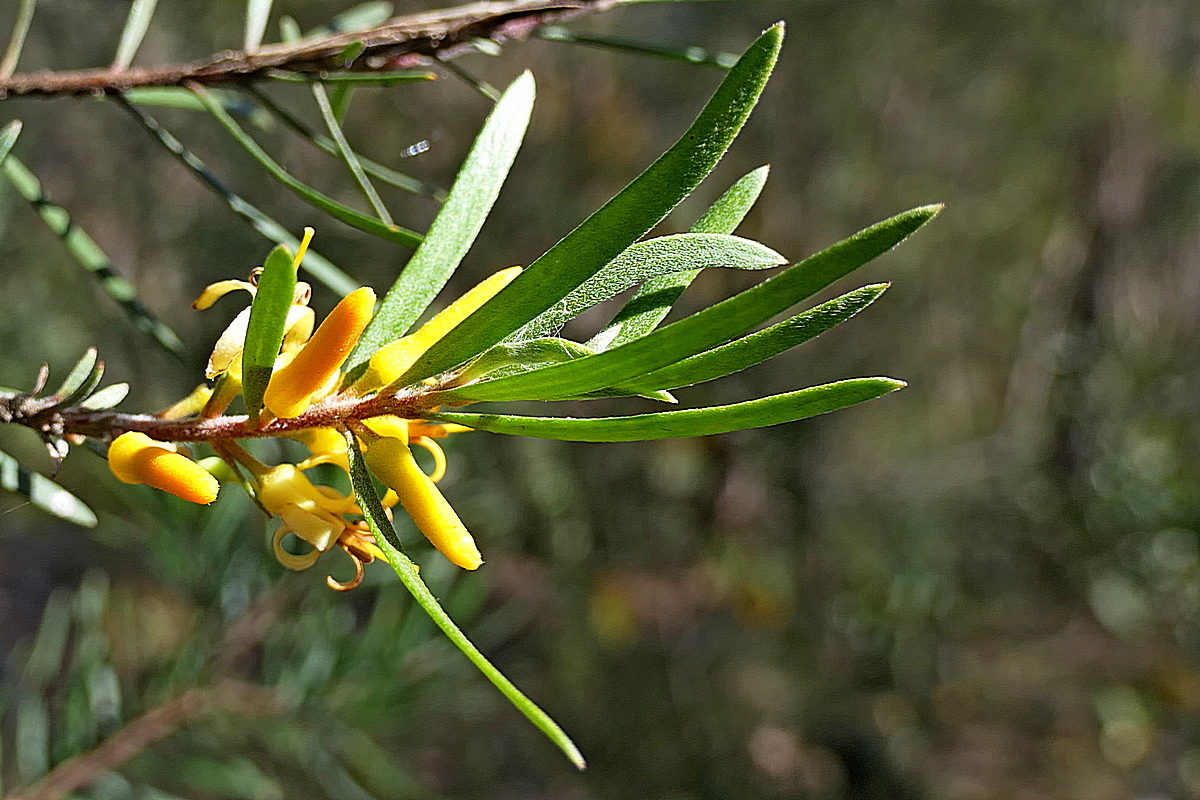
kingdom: Plantae
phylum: Tracheophyta
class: Magnoliopsida
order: Proteales
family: Proteaceae
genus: Persoonia
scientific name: Persoonia linearis
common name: Narrow-leaf geebung
